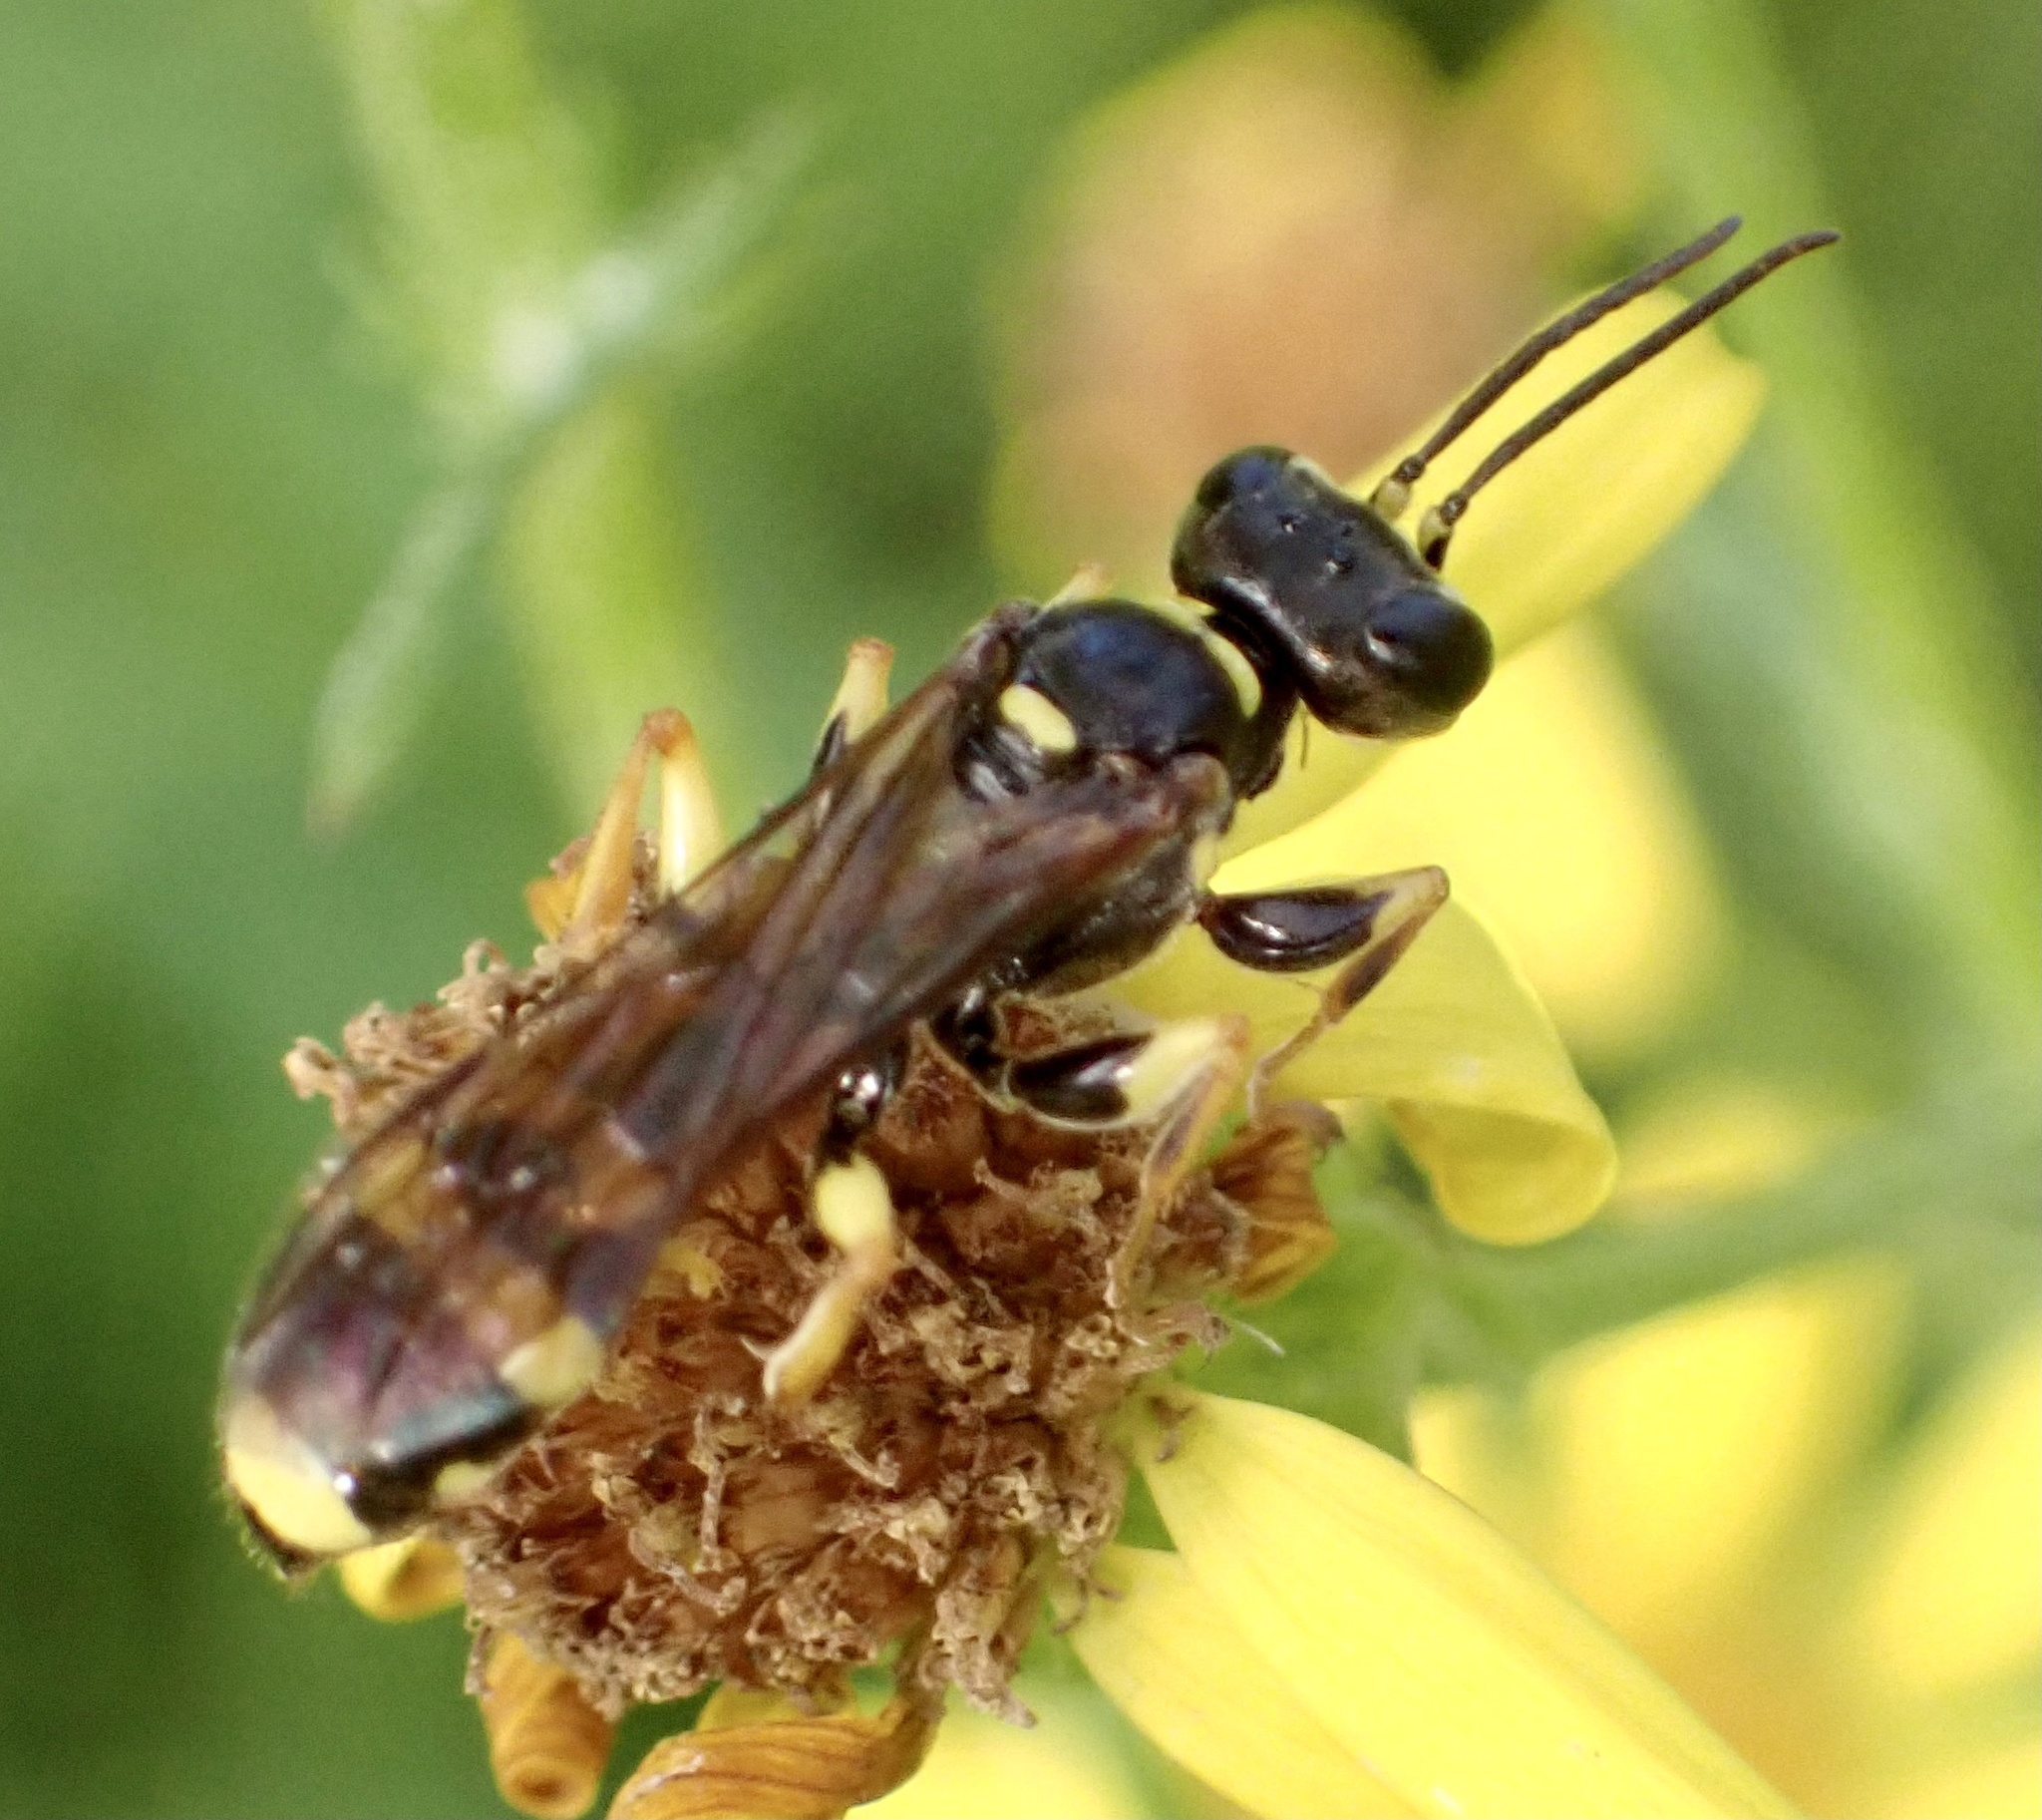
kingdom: Animalia
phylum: Arthropoda
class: Insecta
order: Hymenoptera
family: Crabronidae
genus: Mellinus
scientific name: Mellinus arvensis
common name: Field digger wasp
